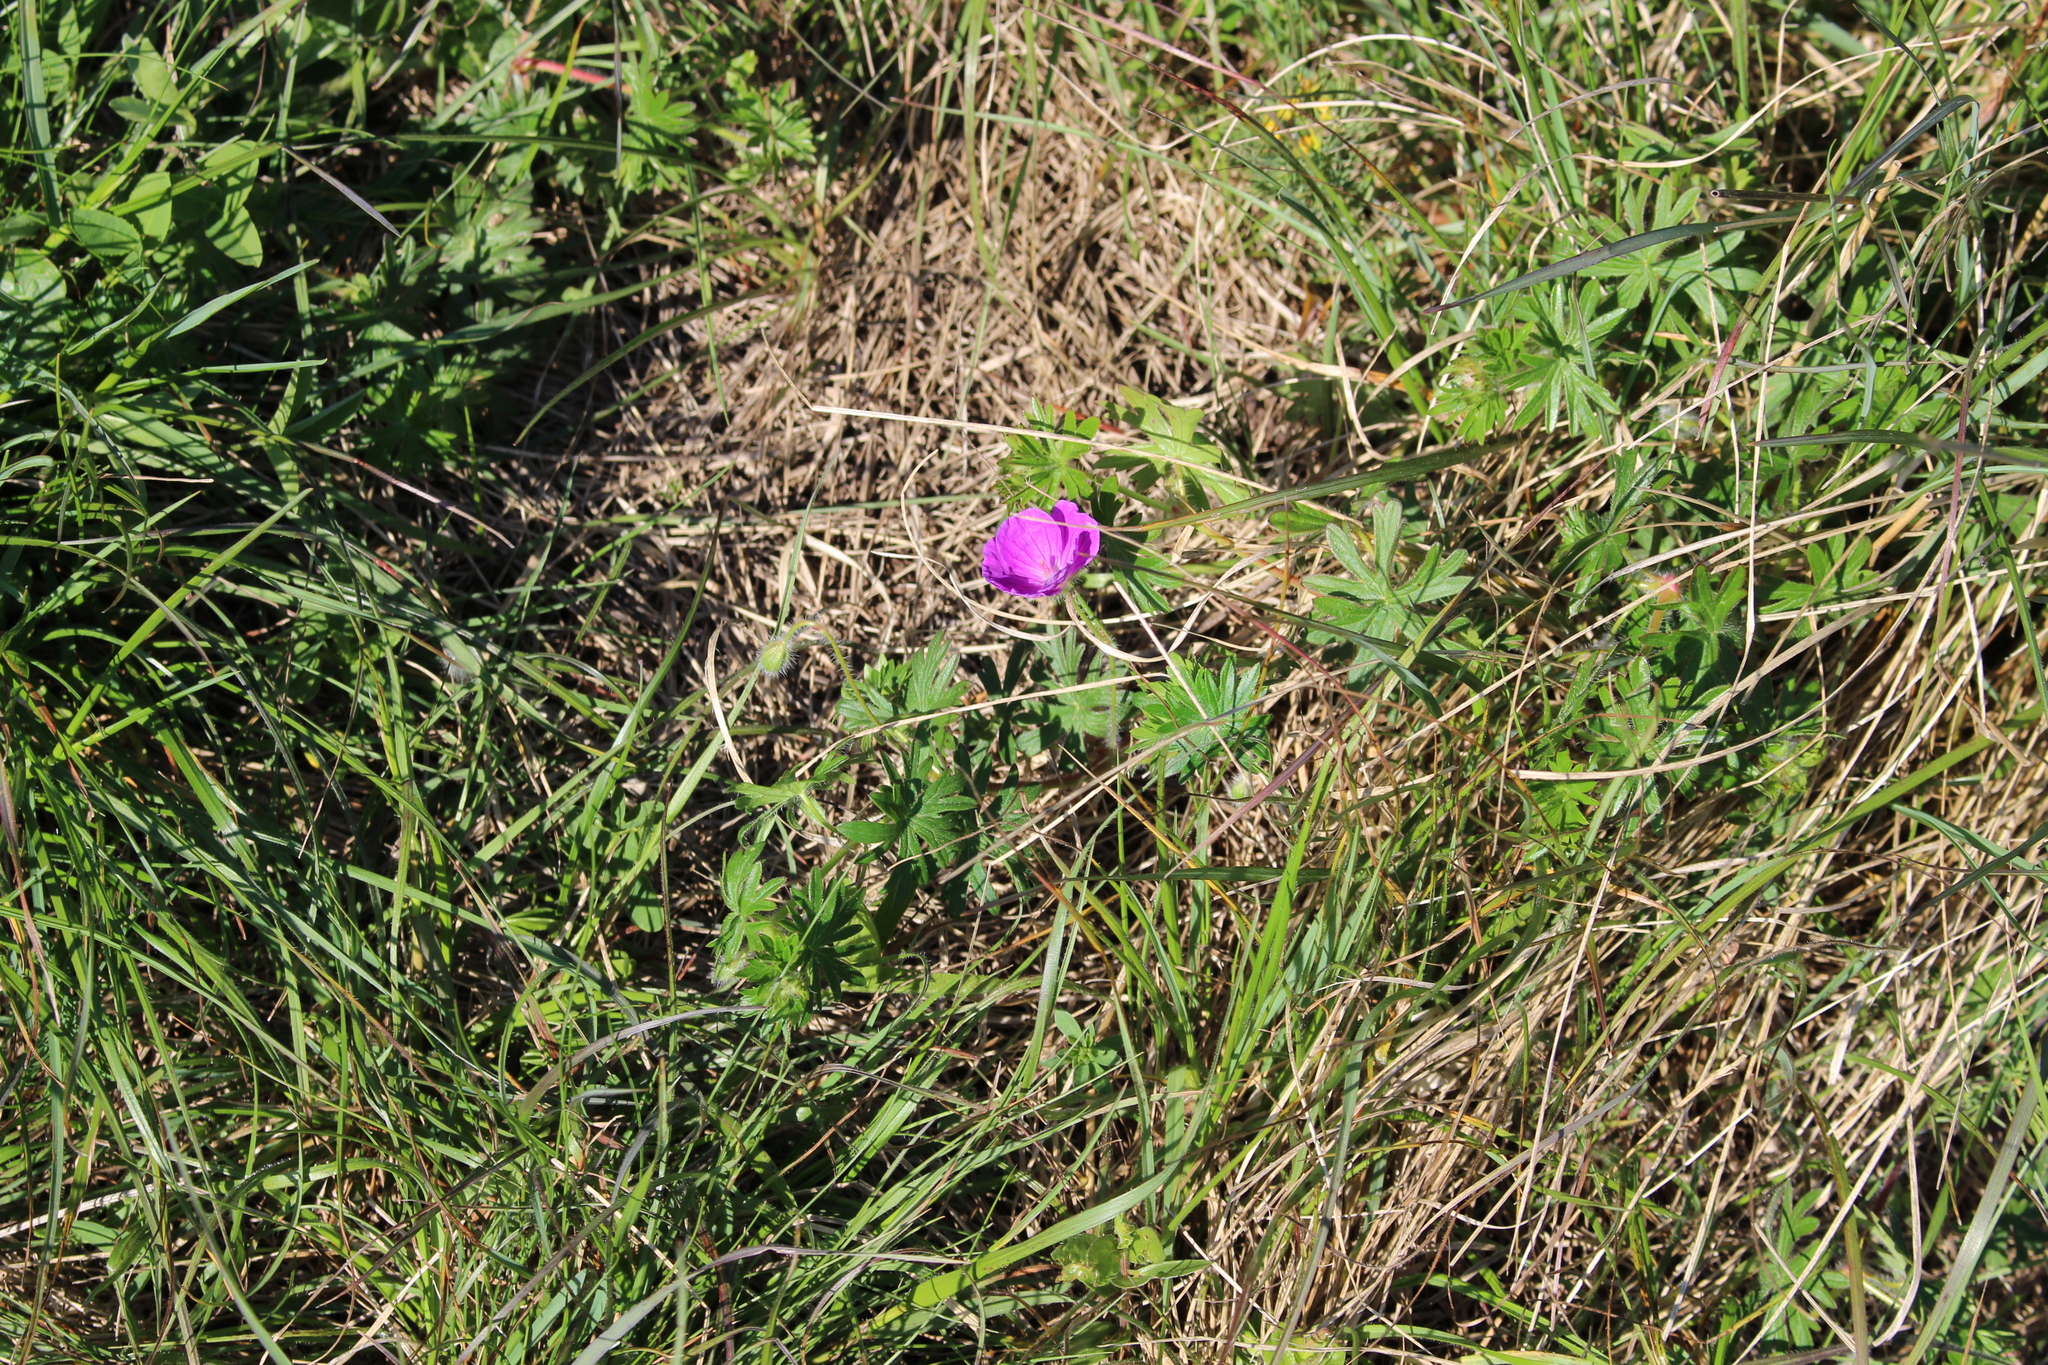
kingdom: Plantae
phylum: Tracheophyta
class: Magnoliopsida
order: Geraniales
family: Geraniaceae
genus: Geranium
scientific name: Geranium sanguineum
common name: Bloody crane's-bill
